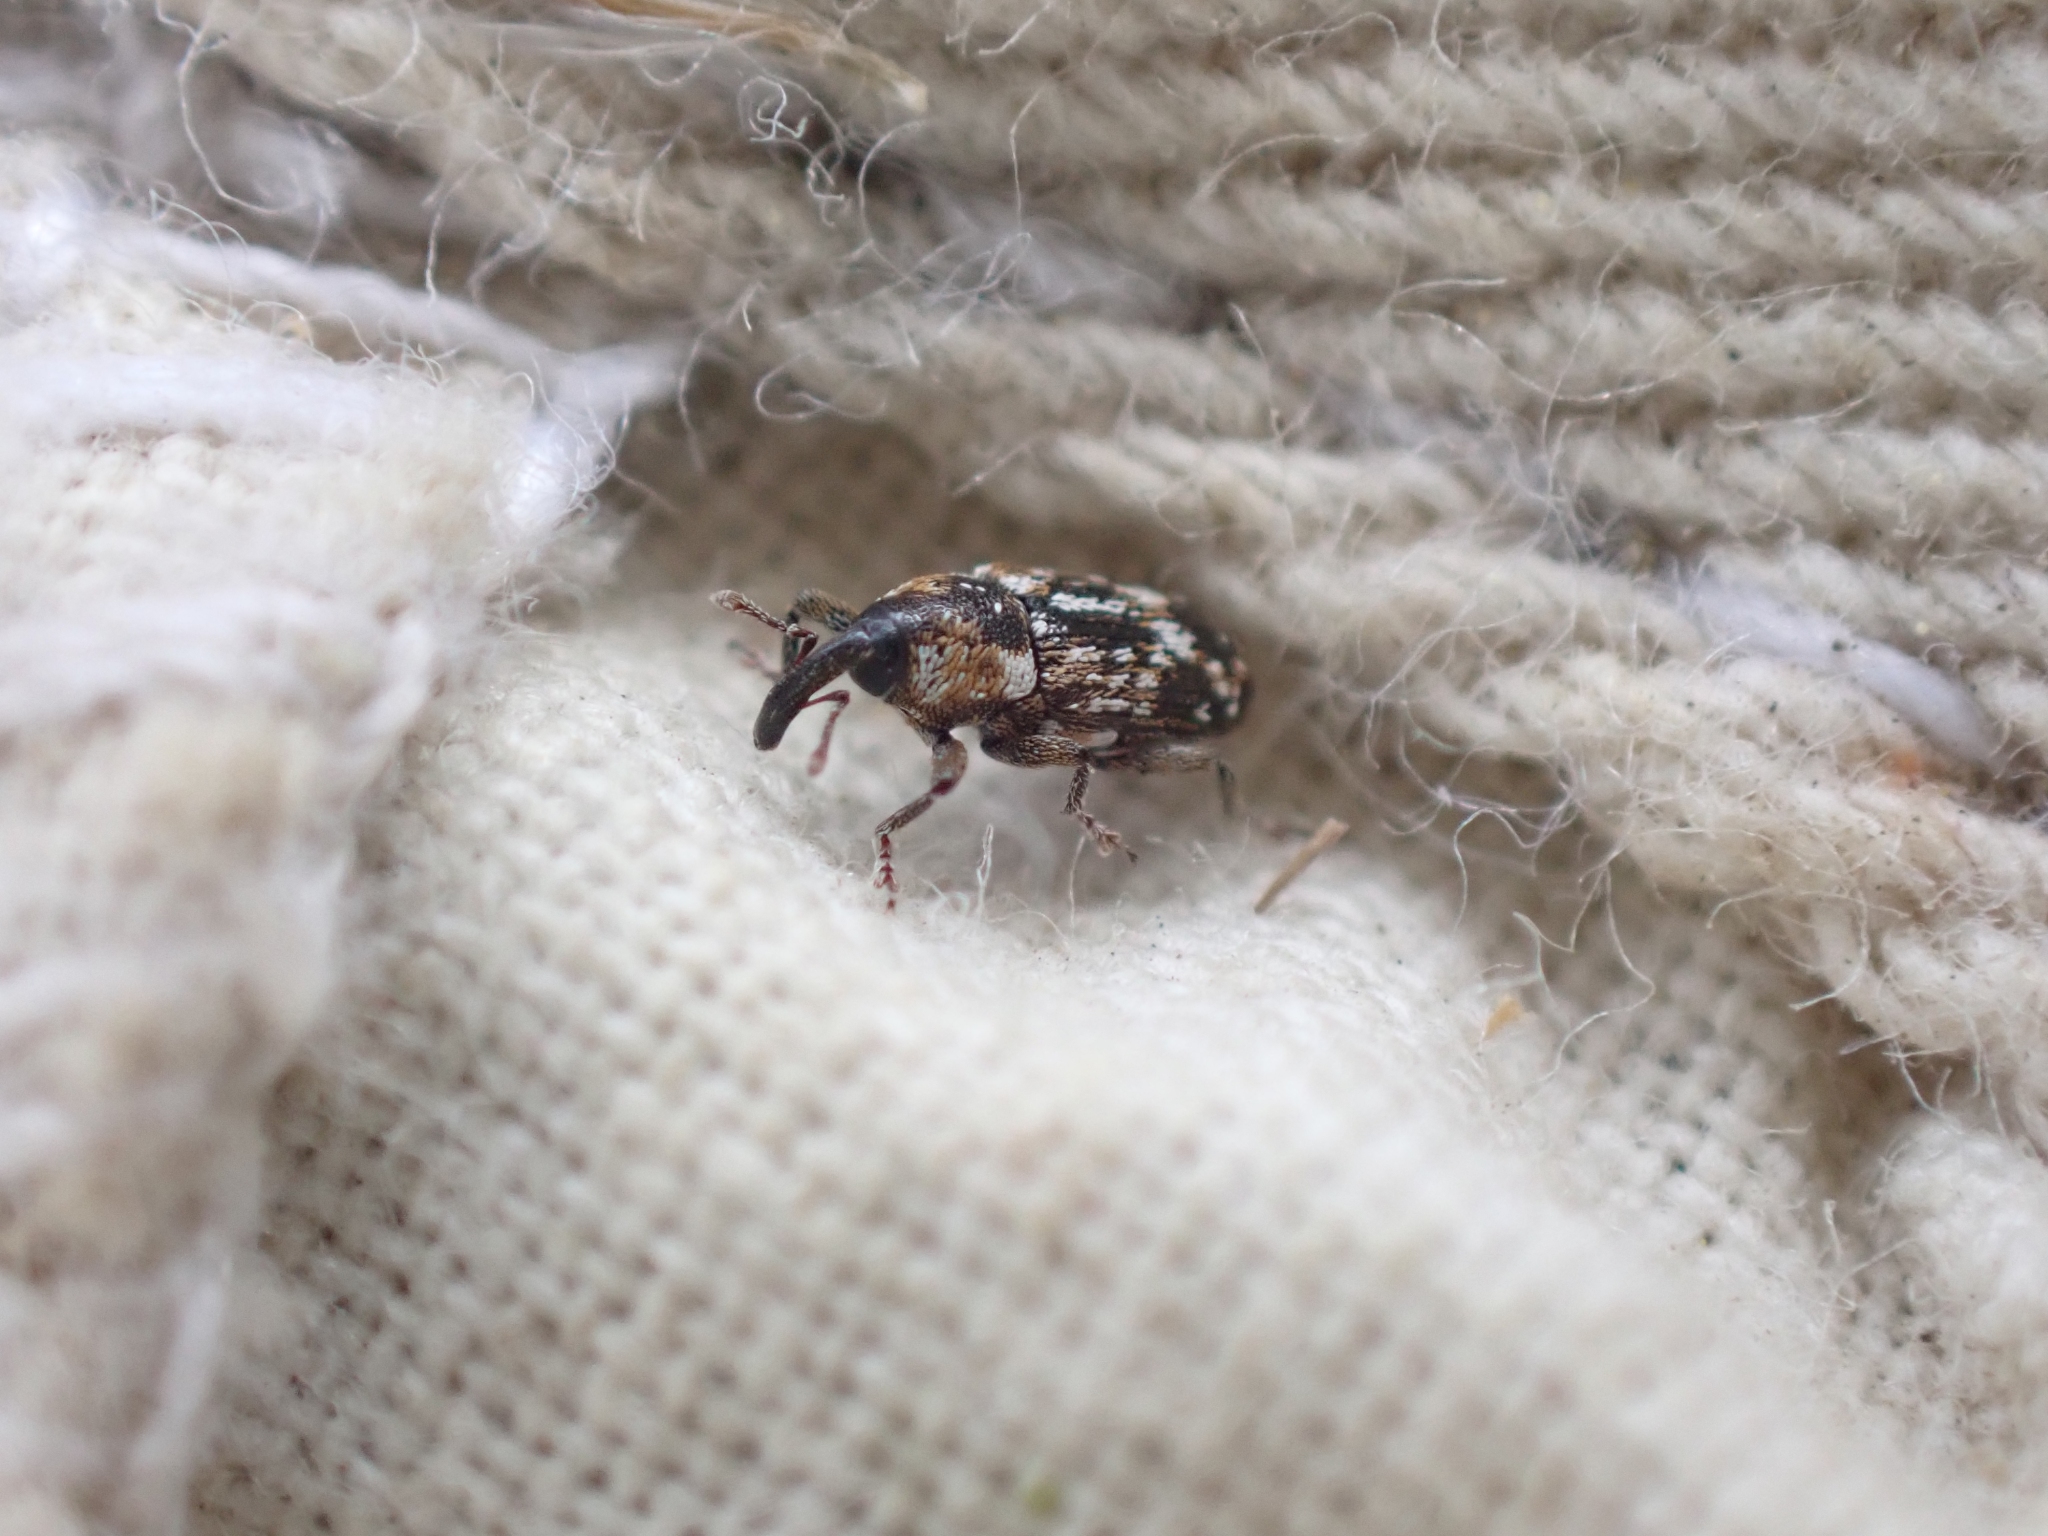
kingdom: Animalia
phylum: Arthropoda
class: Insecta
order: Coleoptera
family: Curculionidae
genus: Cosmobaris
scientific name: Cosmobaris scolopacea
